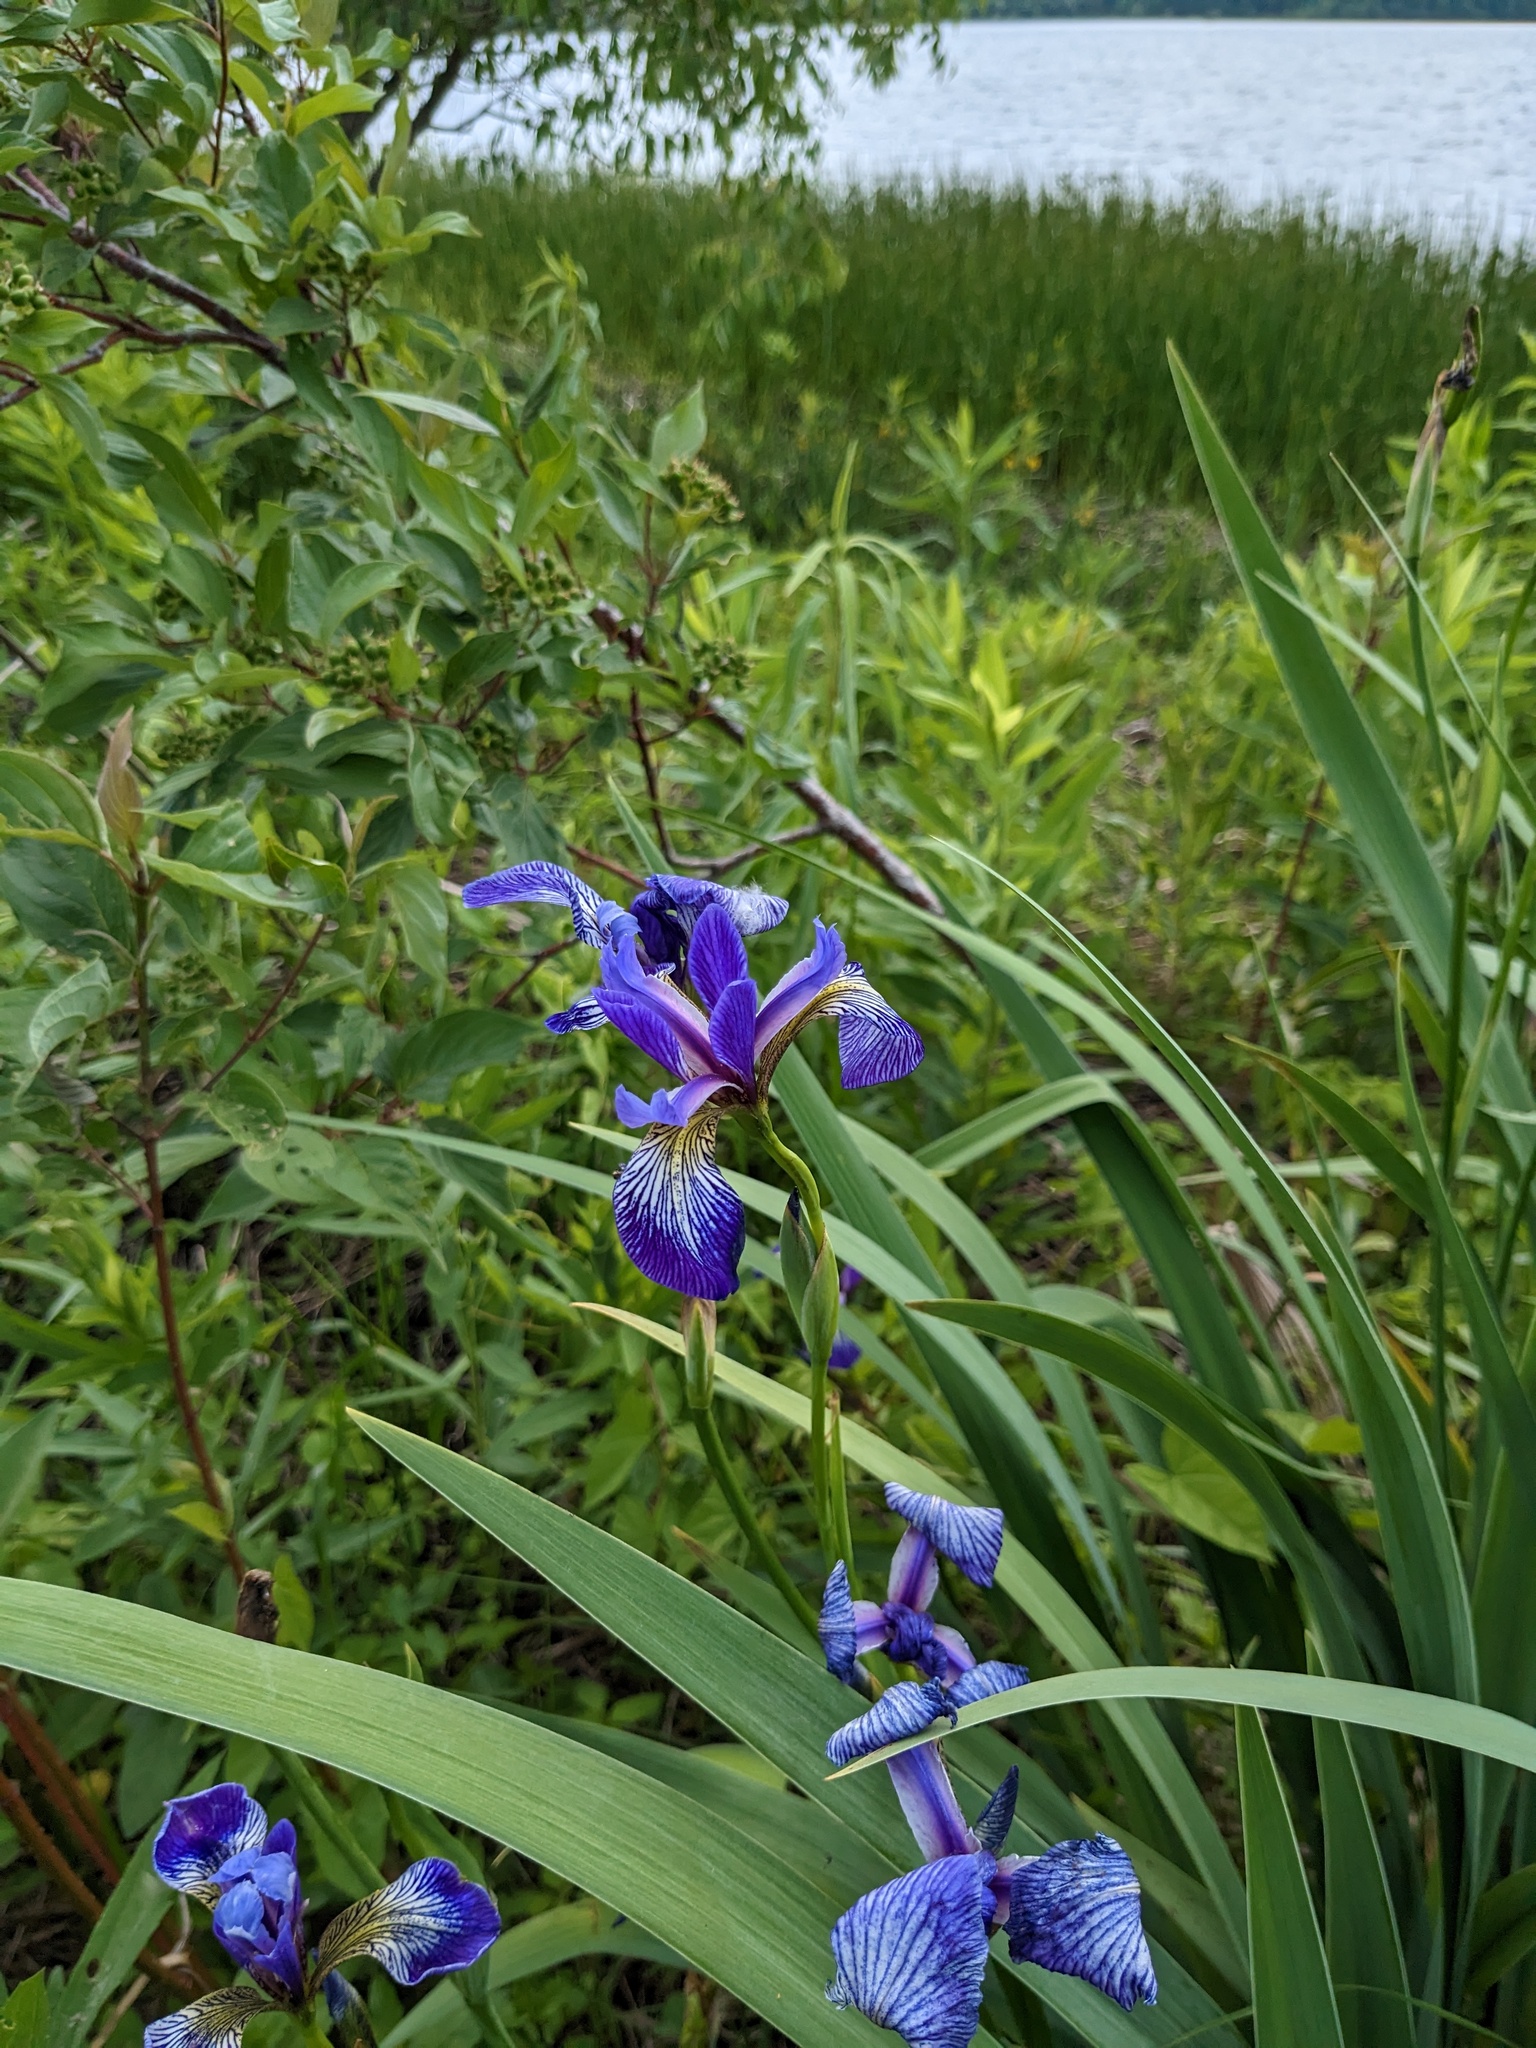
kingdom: Plantae
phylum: Tracheophyta
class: Liliopsida
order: Asparagales
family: Iridaceae
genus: Iris
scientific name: Iris versicolor
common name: Purple iris
